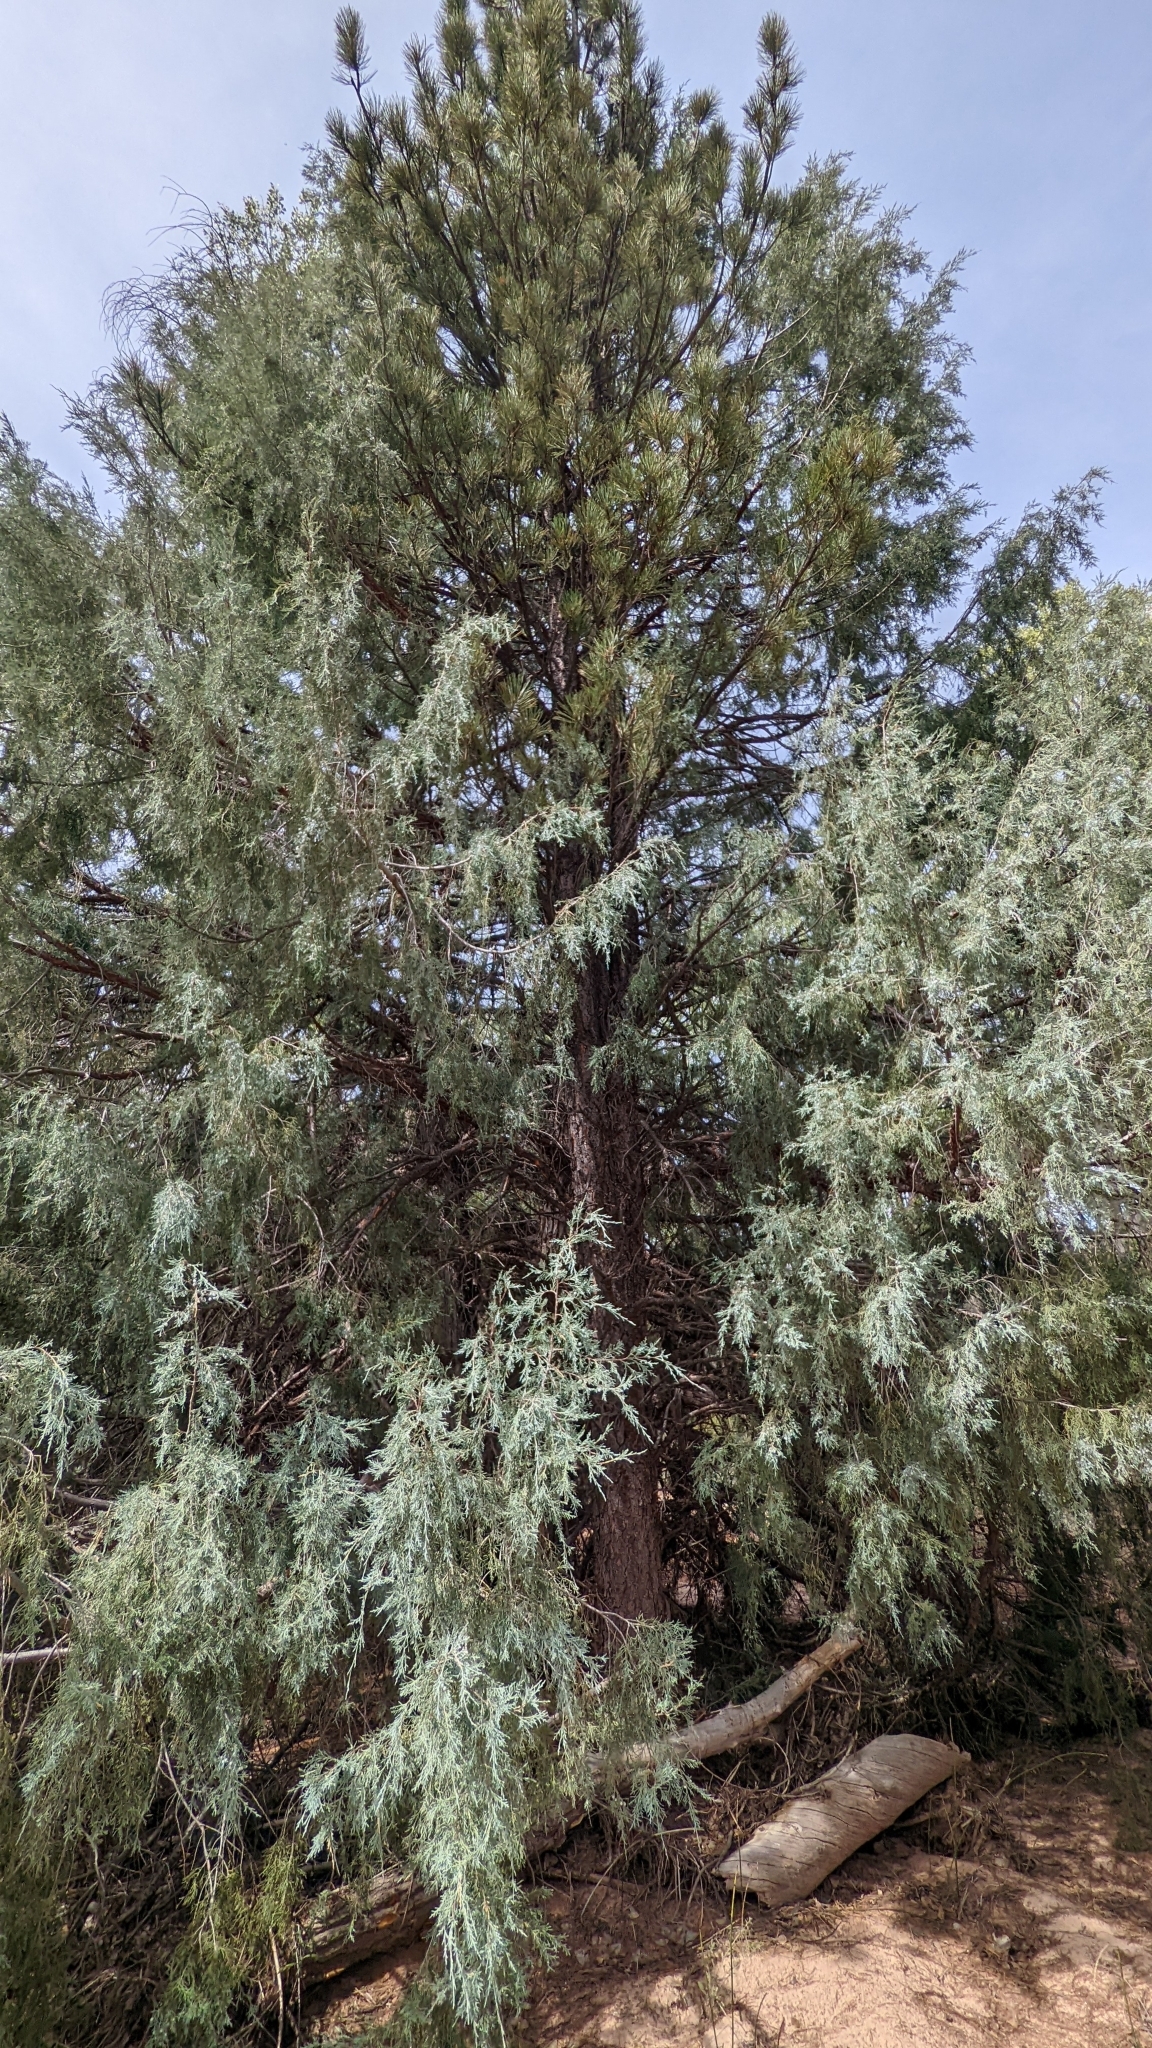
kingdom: Plantae
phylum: Tracheophyta
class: Pinopsida
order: Pinales
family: Cupressaceae
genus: Juniperus
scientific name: Juniperus scopulorum
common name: Rocky mountain juniper
